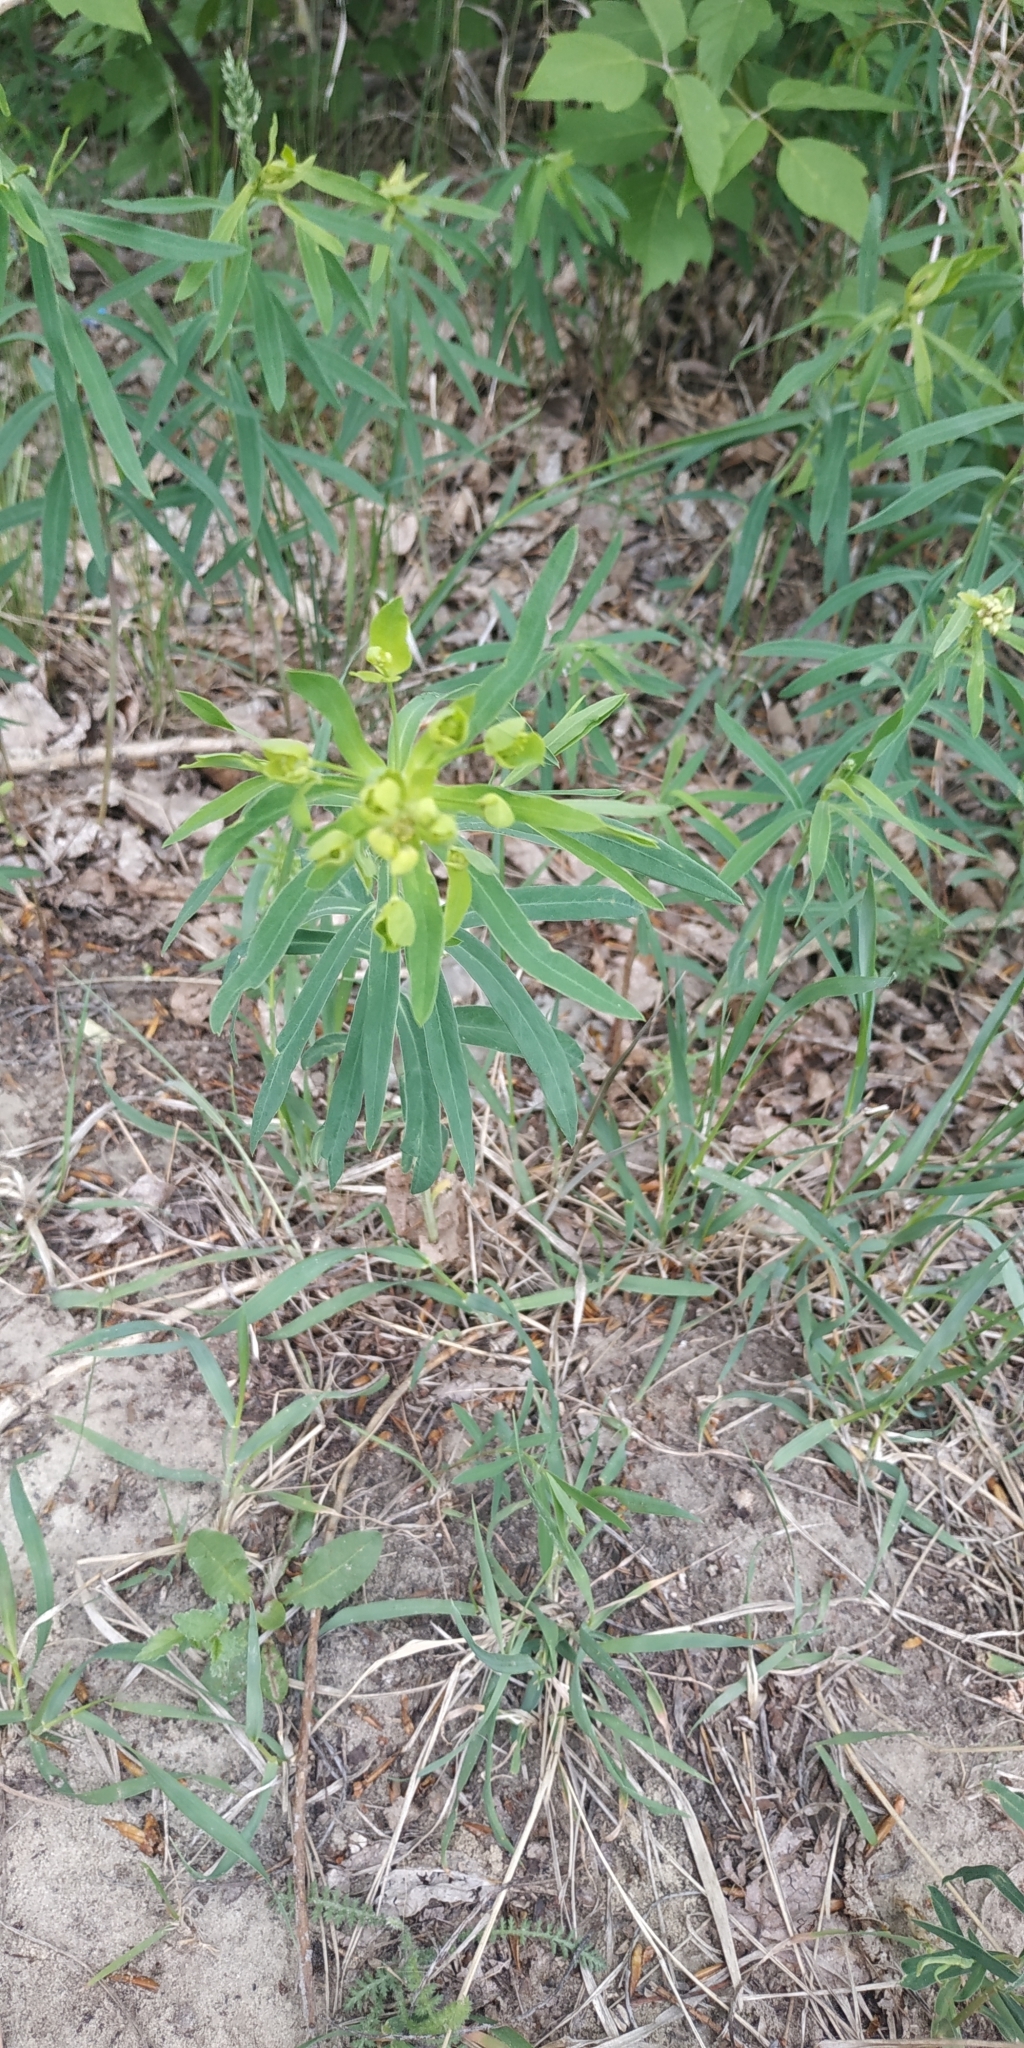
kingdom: Plantae
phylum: Tracheophyta
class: Magnoliopsida
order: Malpighiales
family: Euphorbiaceae
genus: Euphorbia
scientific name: Euphorbia virgata
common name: Leafy spurge
